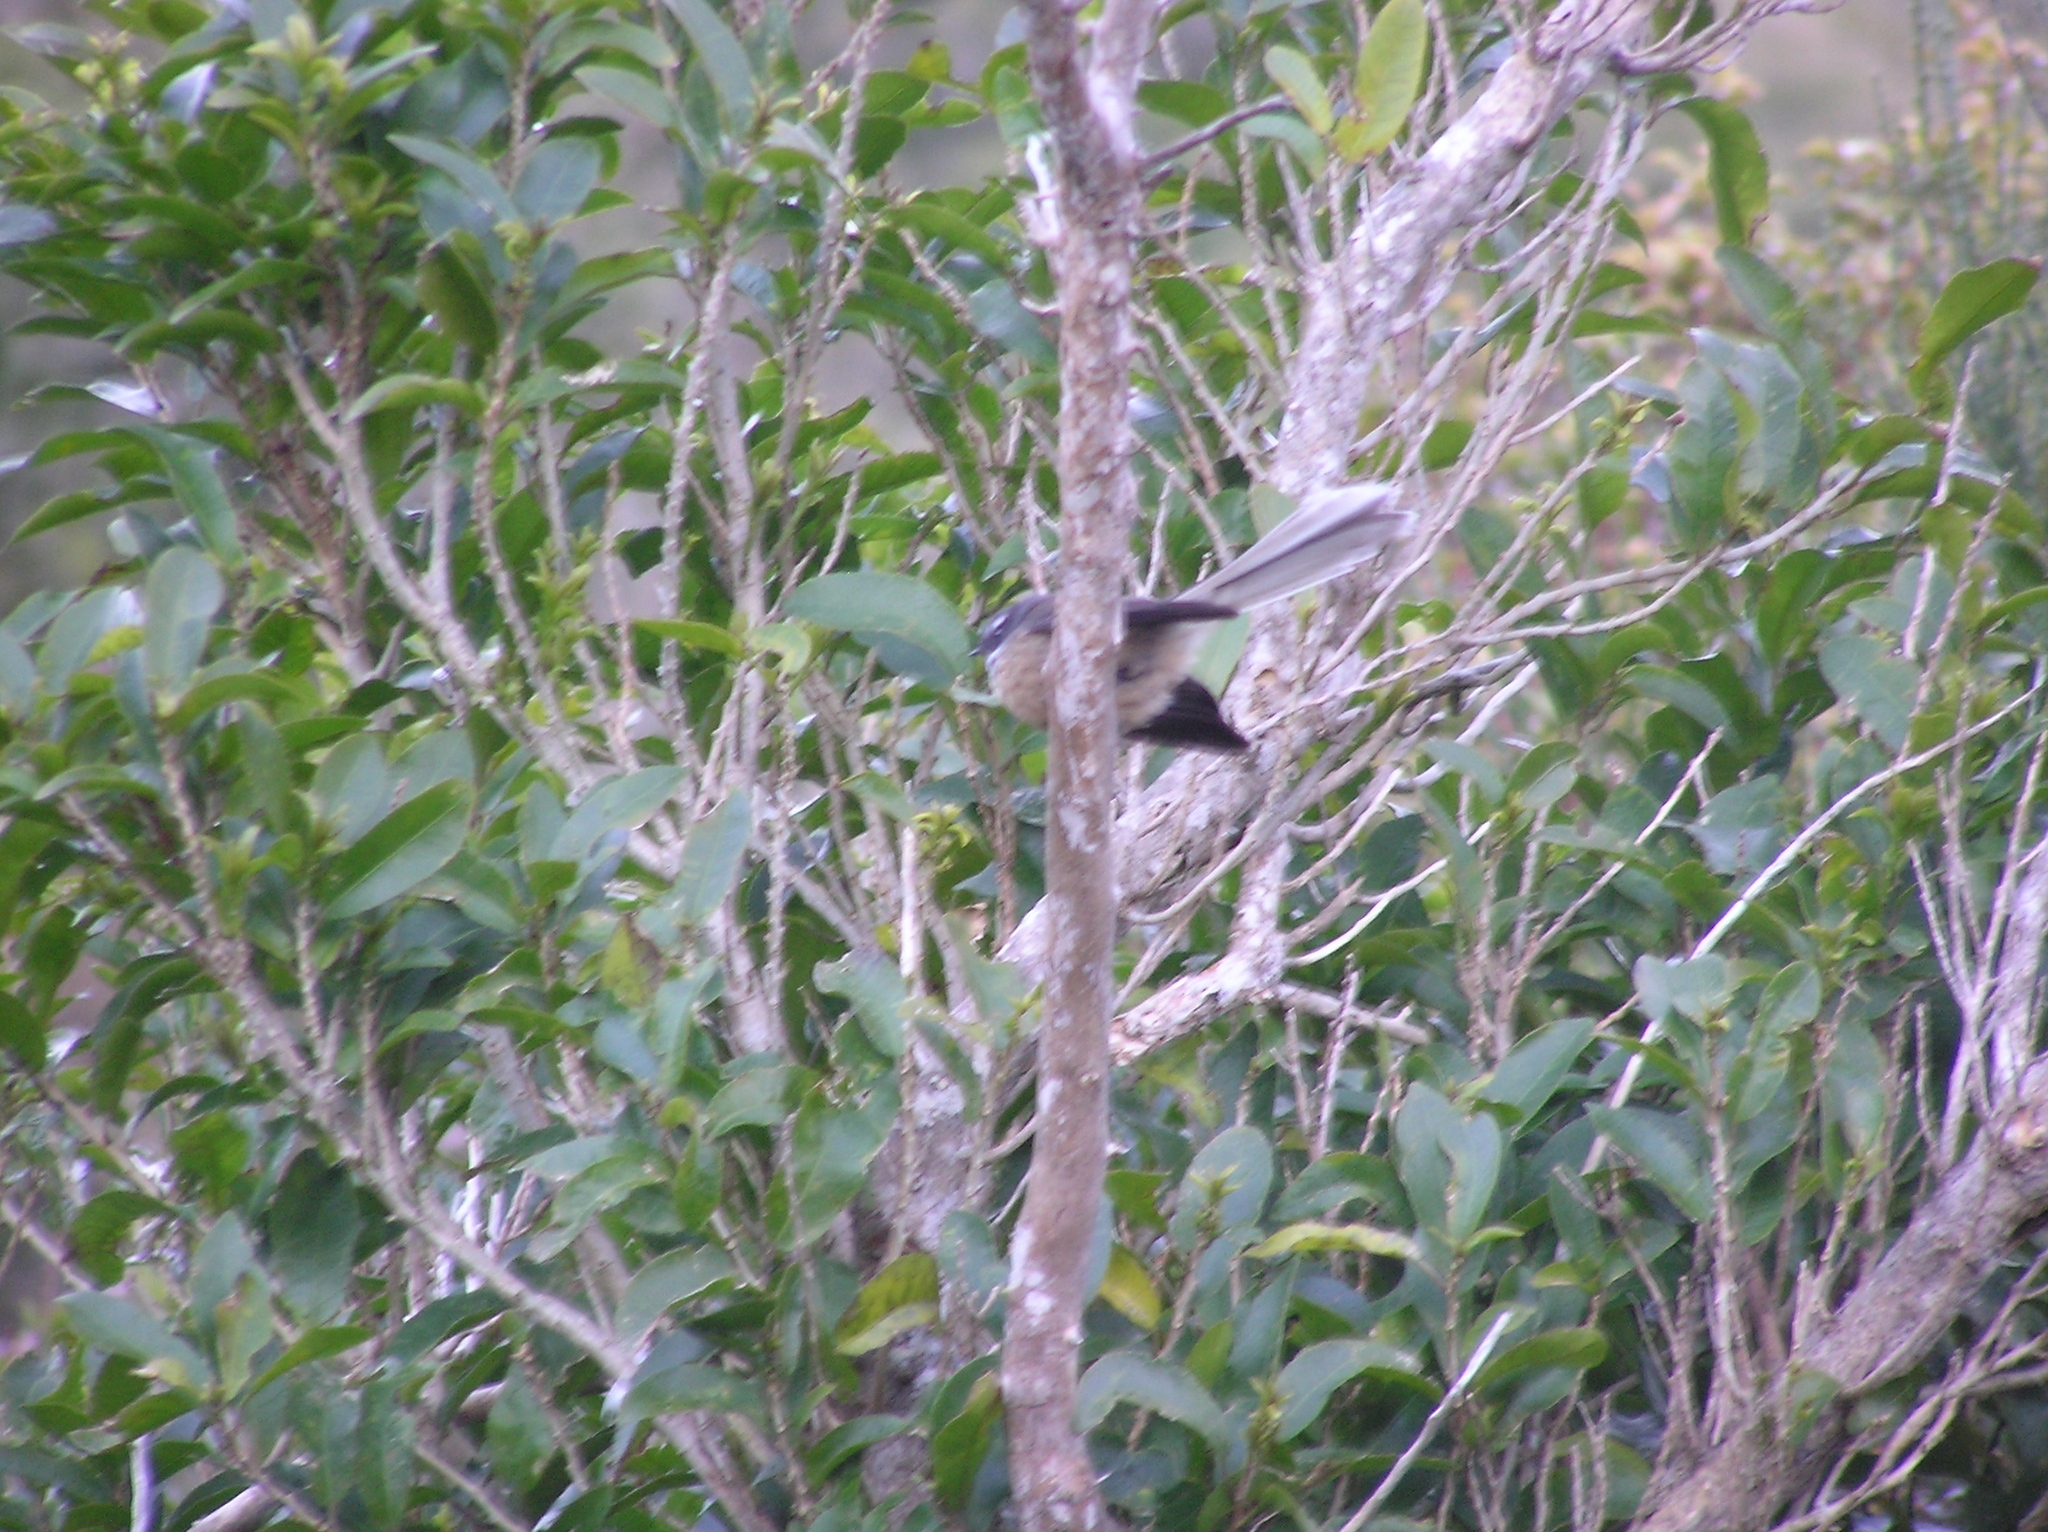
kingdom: Animalia
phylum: Chordata
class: Aves
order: Passeriformes
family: Rhipiduridae
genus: Rhipidura
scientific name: Rhipidura fuliginosa
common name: New zealand fantail
